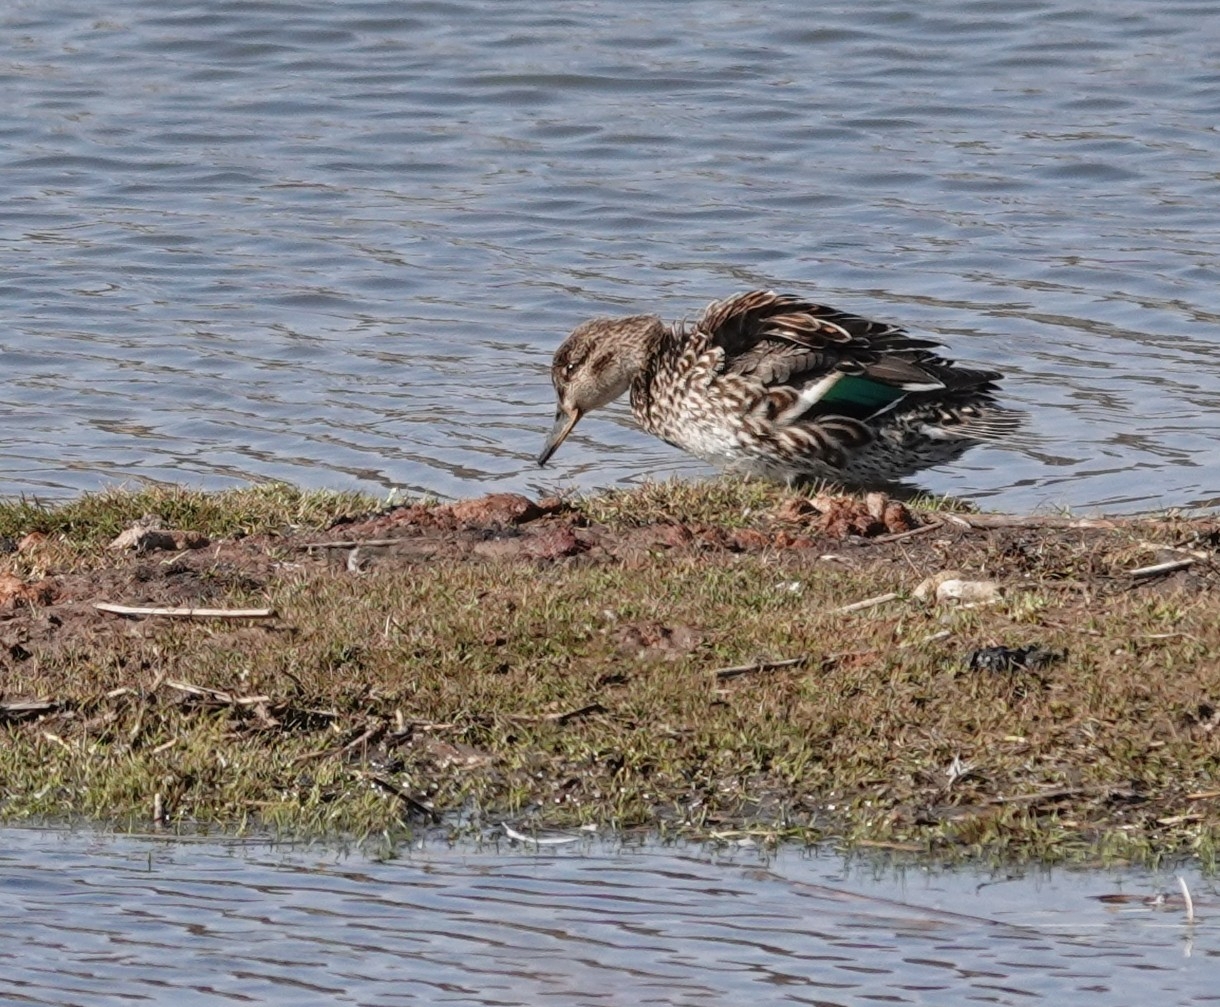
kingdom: Animalia
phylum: Chordata
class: Aves
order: Anseriformes
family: Anatidae
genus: Anas
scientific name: Anas crecca
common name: Eurasian teal
